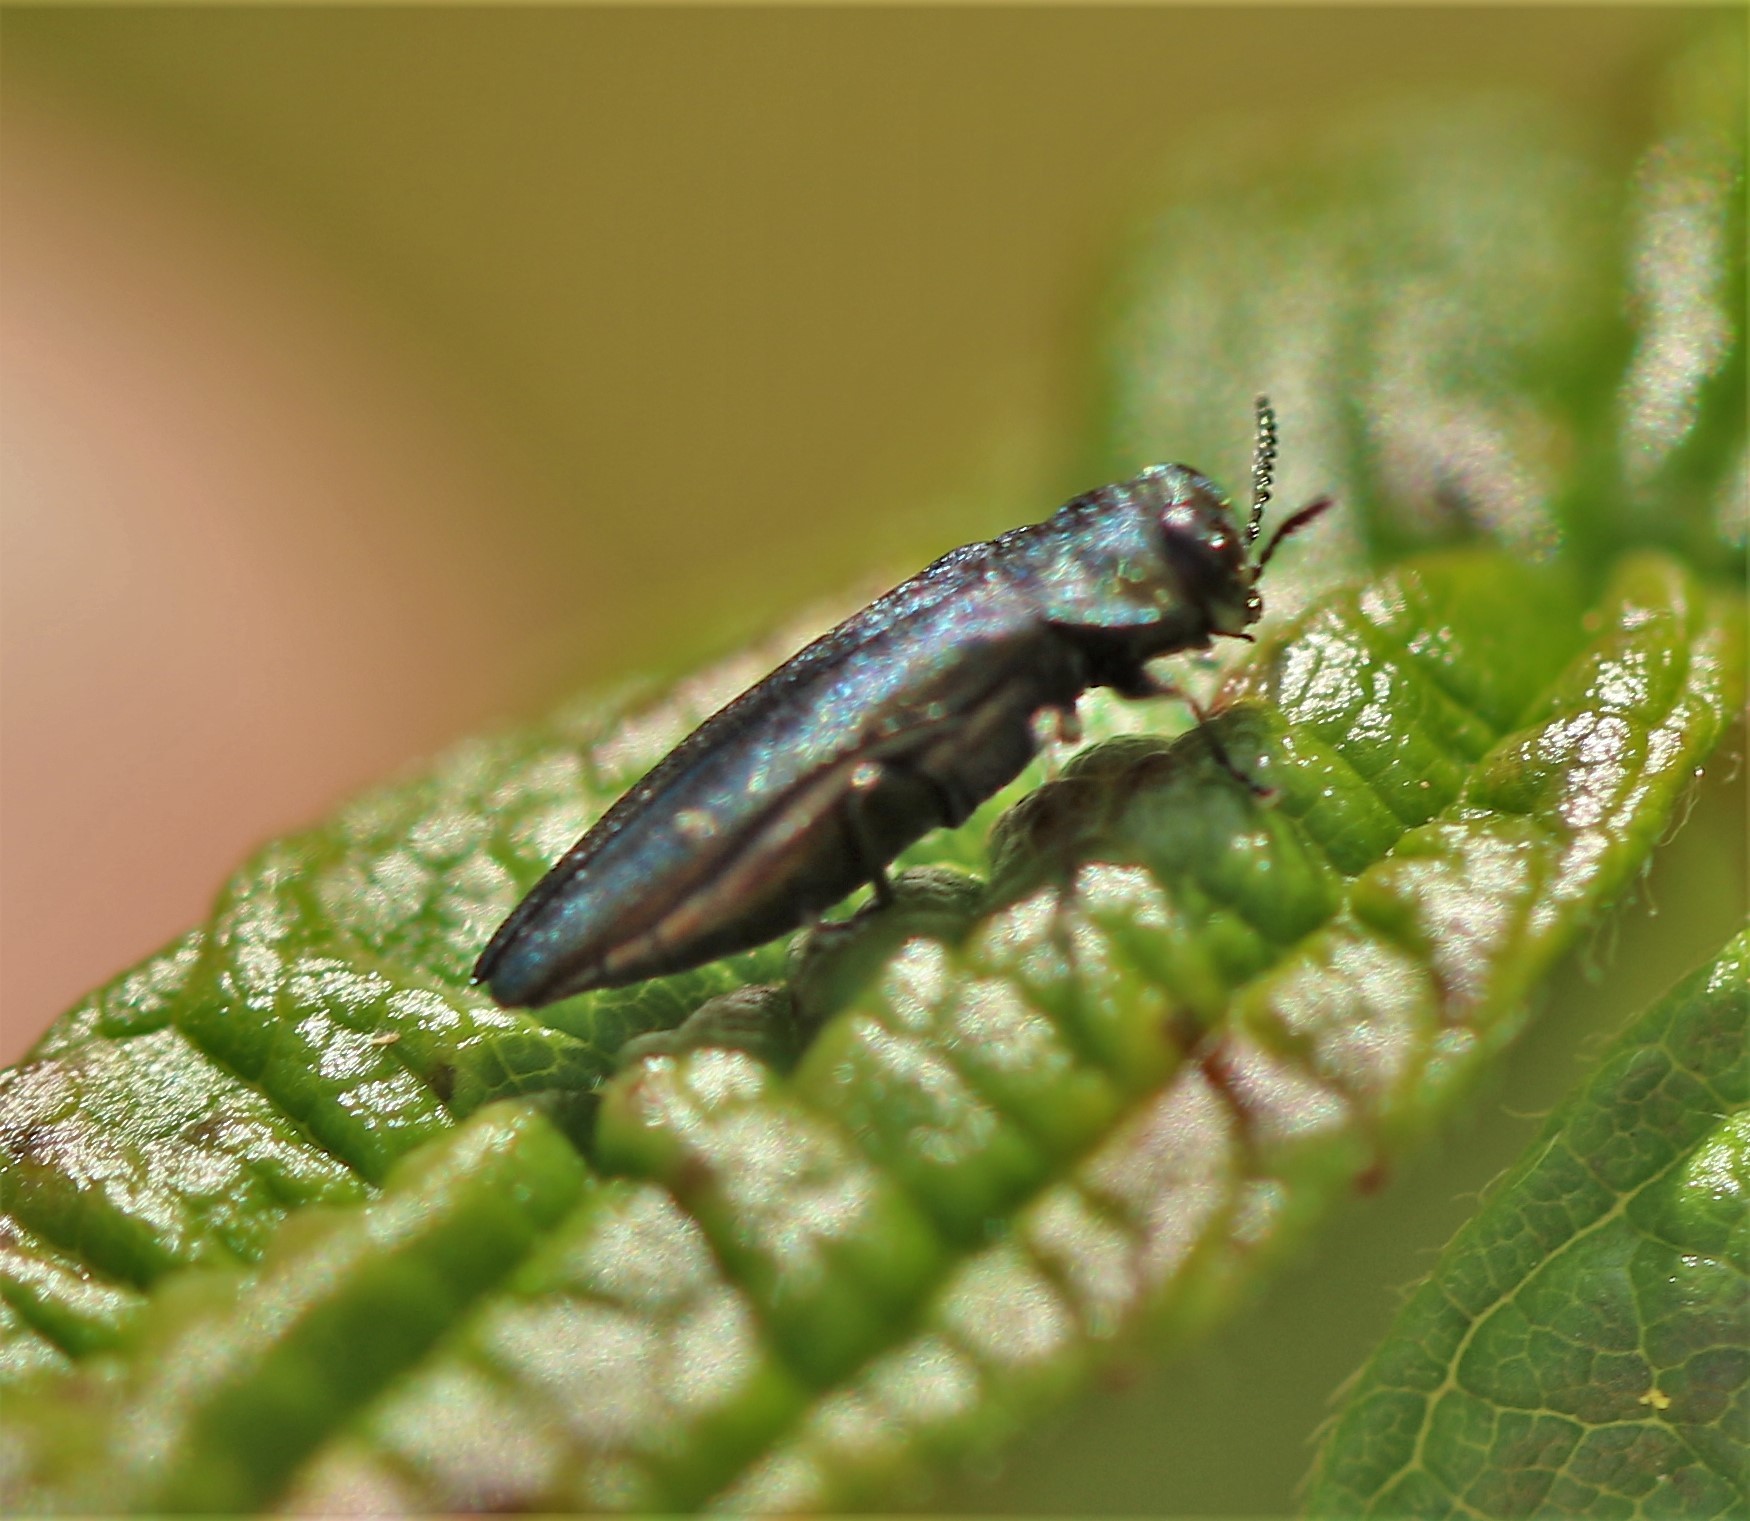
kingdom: Animalia
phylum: Arthropoda
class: Insecta
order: Coleoptera
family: Buprestidae
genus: Agrilus
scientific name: Agrilus cuprescens
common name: Rose stem girdler
